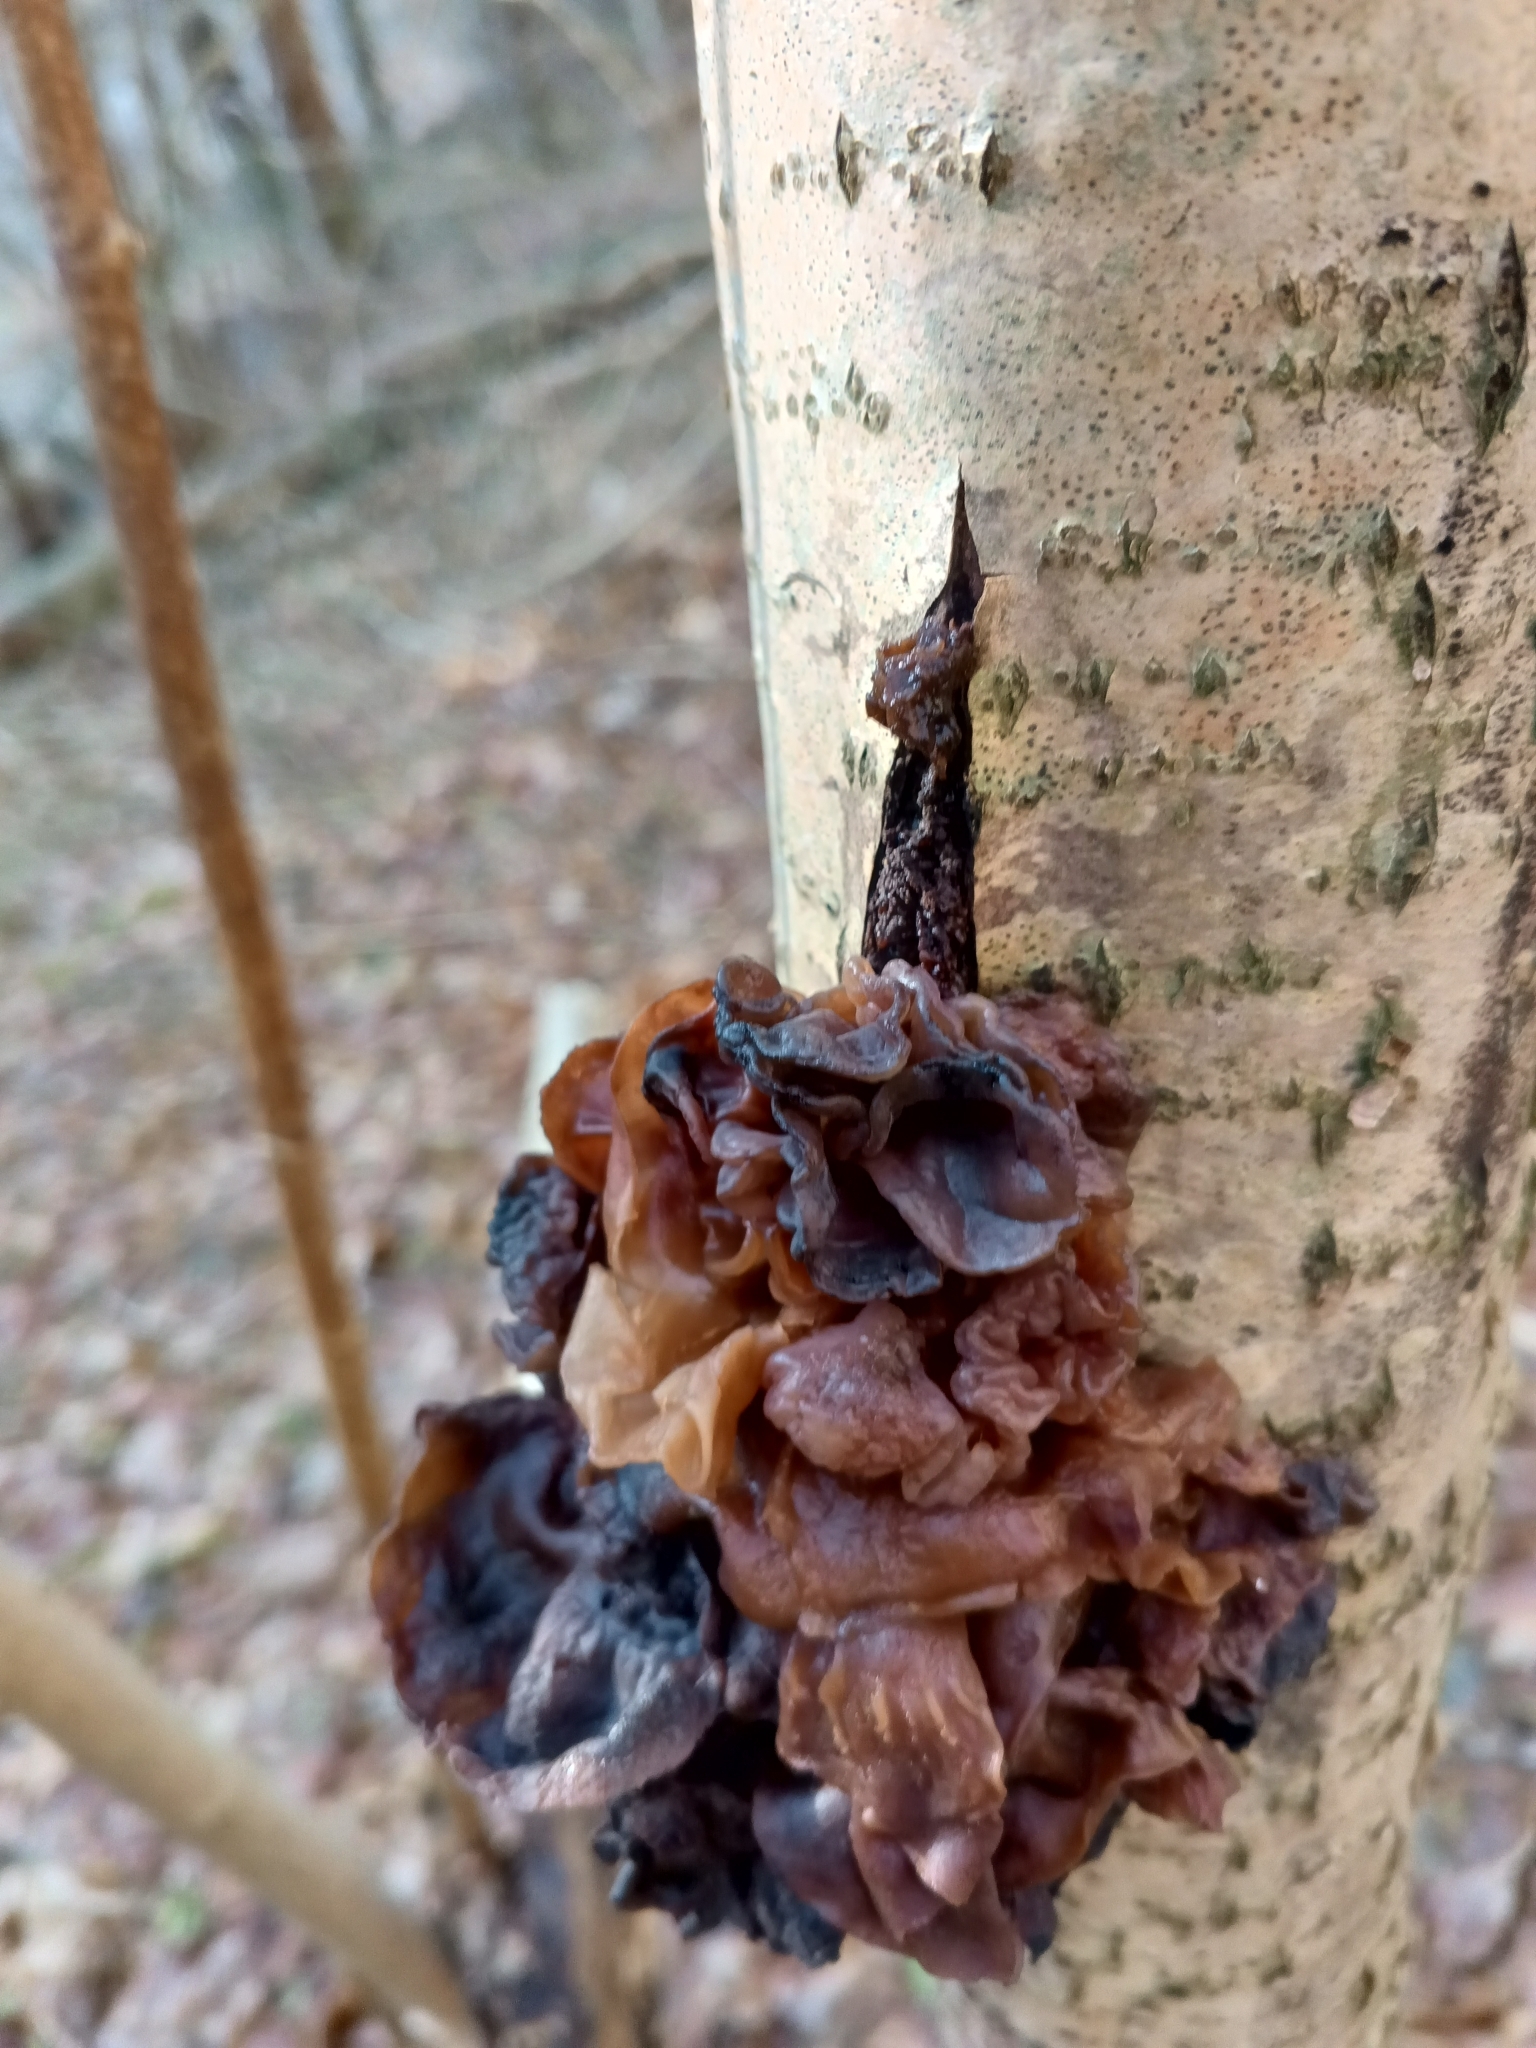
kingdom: Fungi
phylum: Basidiomycota
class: Tremellomycetes
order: Tremellales
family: Tremellaceae
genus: Phaeotremella
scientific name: Phaeotremella frondosa
